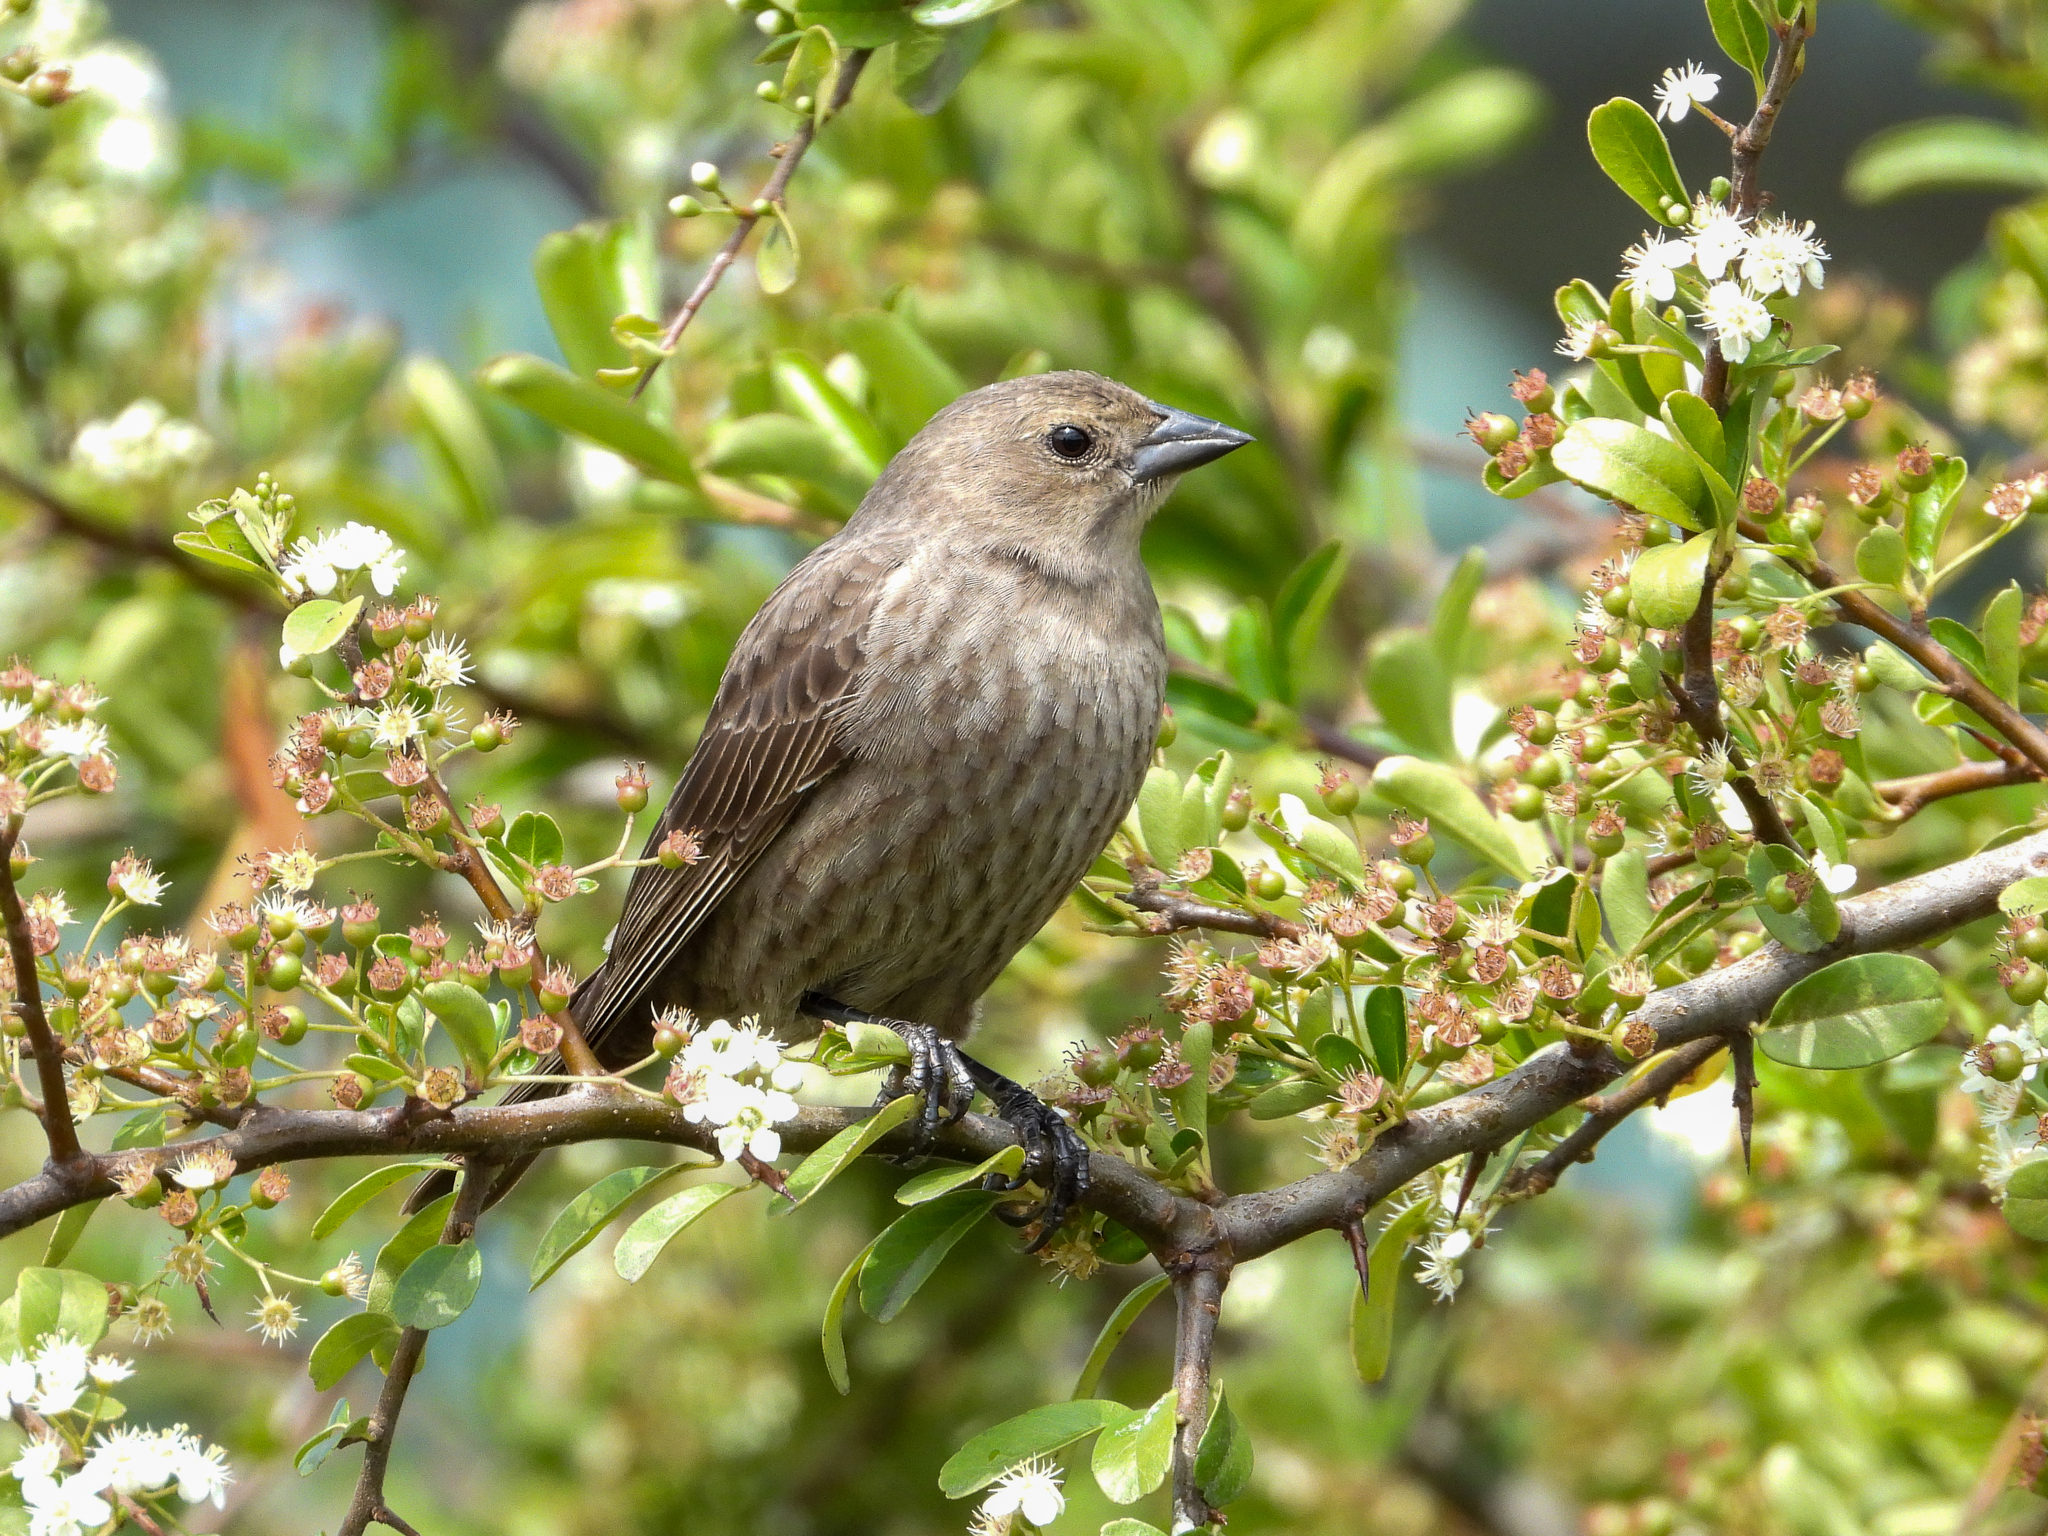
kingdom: Animalia
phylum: Chordata
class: Aves
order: Passeriformes
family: Icteridae
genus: Molothrus
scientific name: Molothrus ater
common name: Brown-headed cowbird
